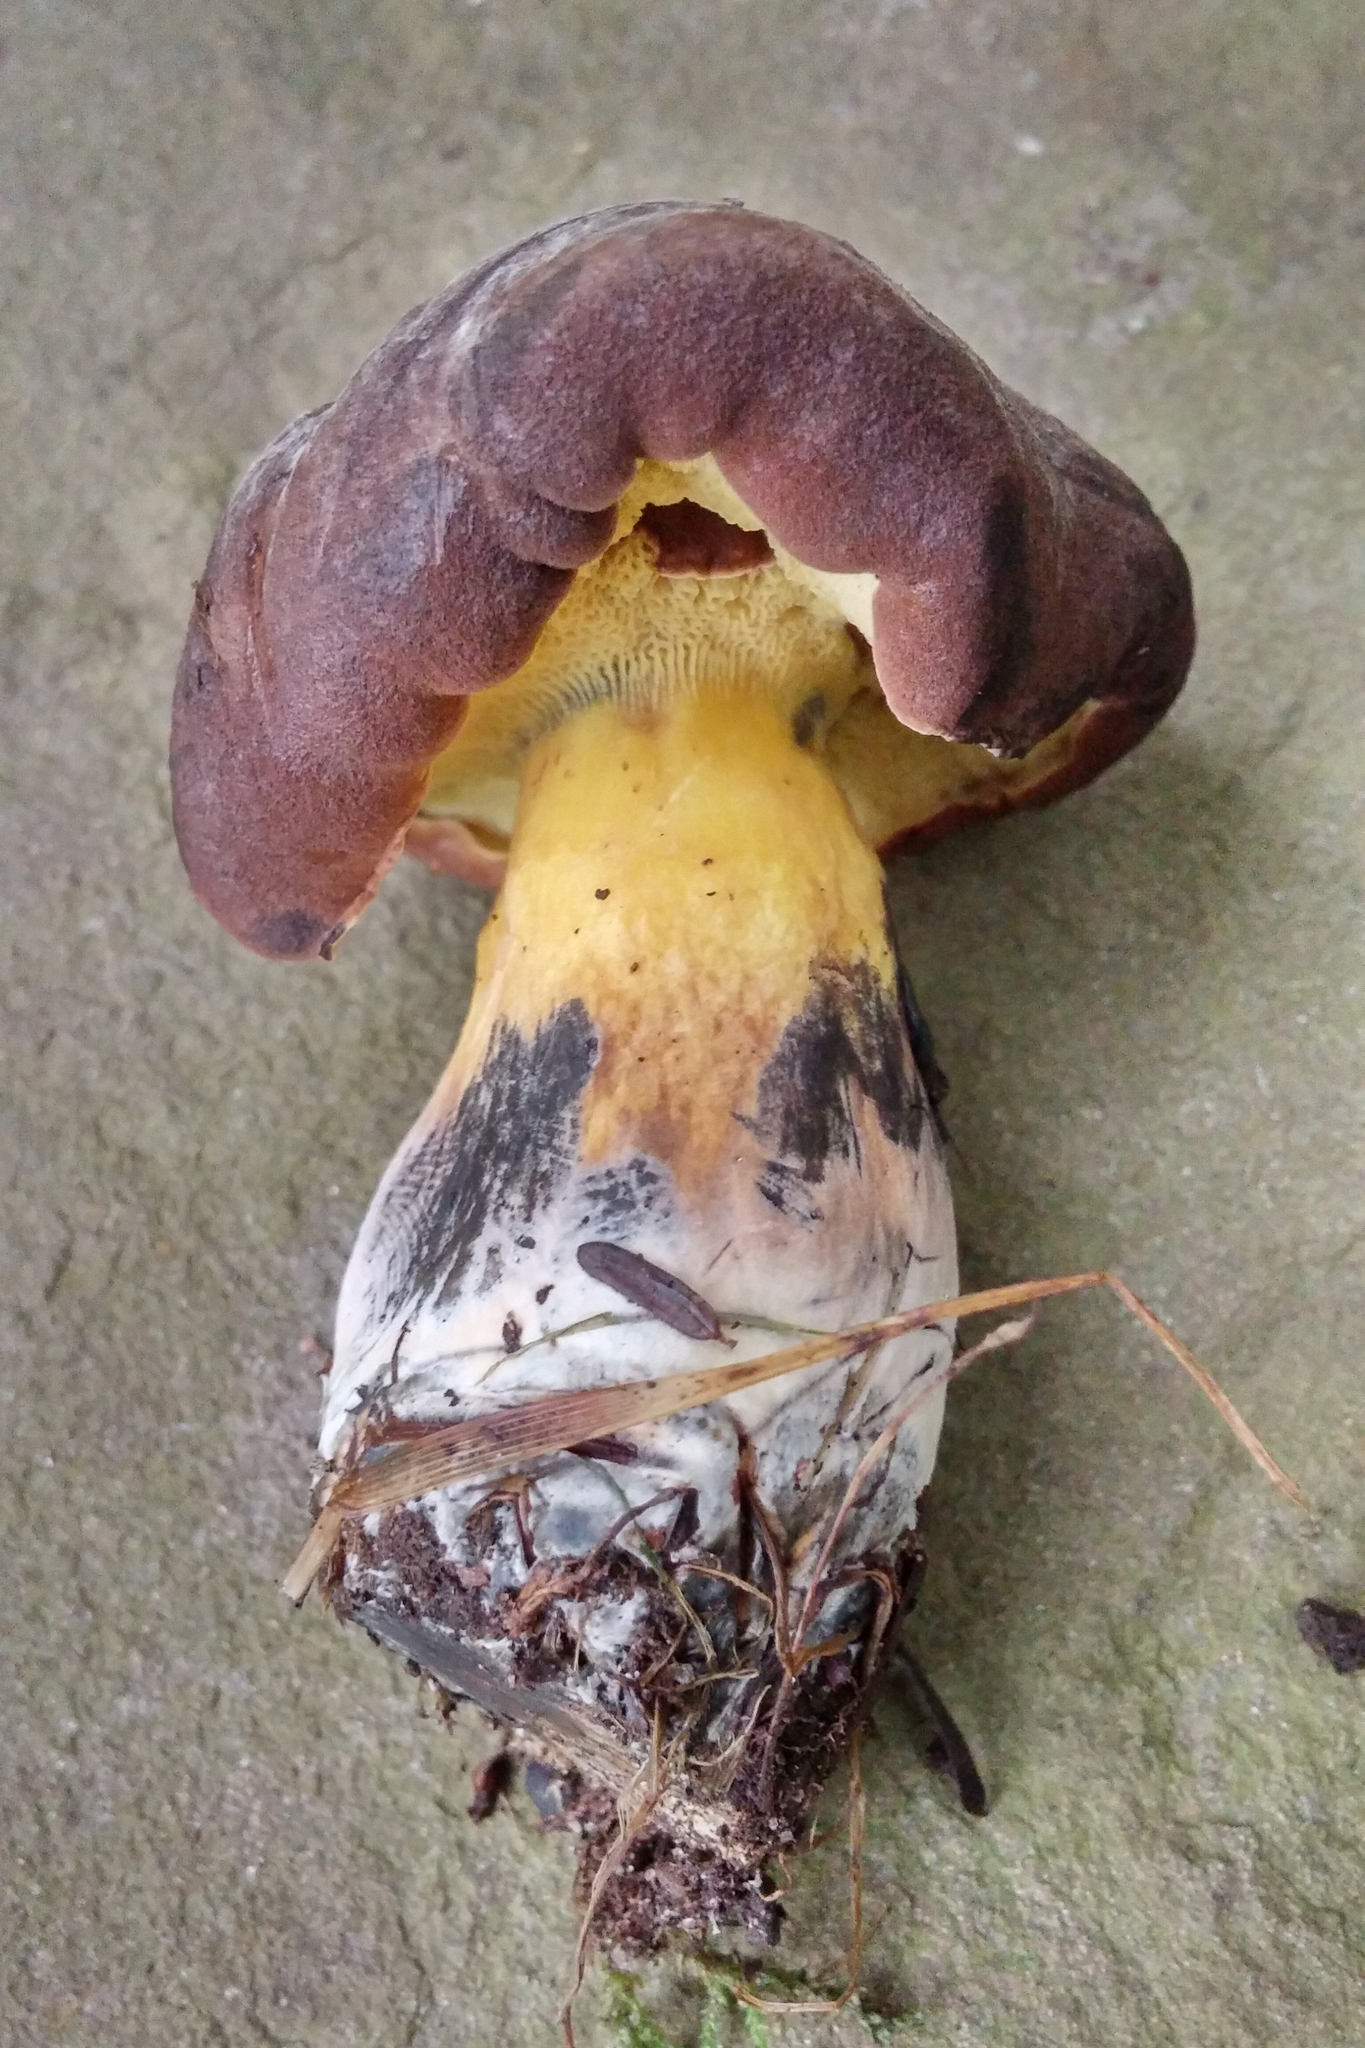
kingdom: Fungi
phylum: Basidiomycota
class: Agaricomycetes
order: Boletales
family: Boletaceae
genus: Cyanoboletus
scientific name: Cyanoboletus pulverulentus
